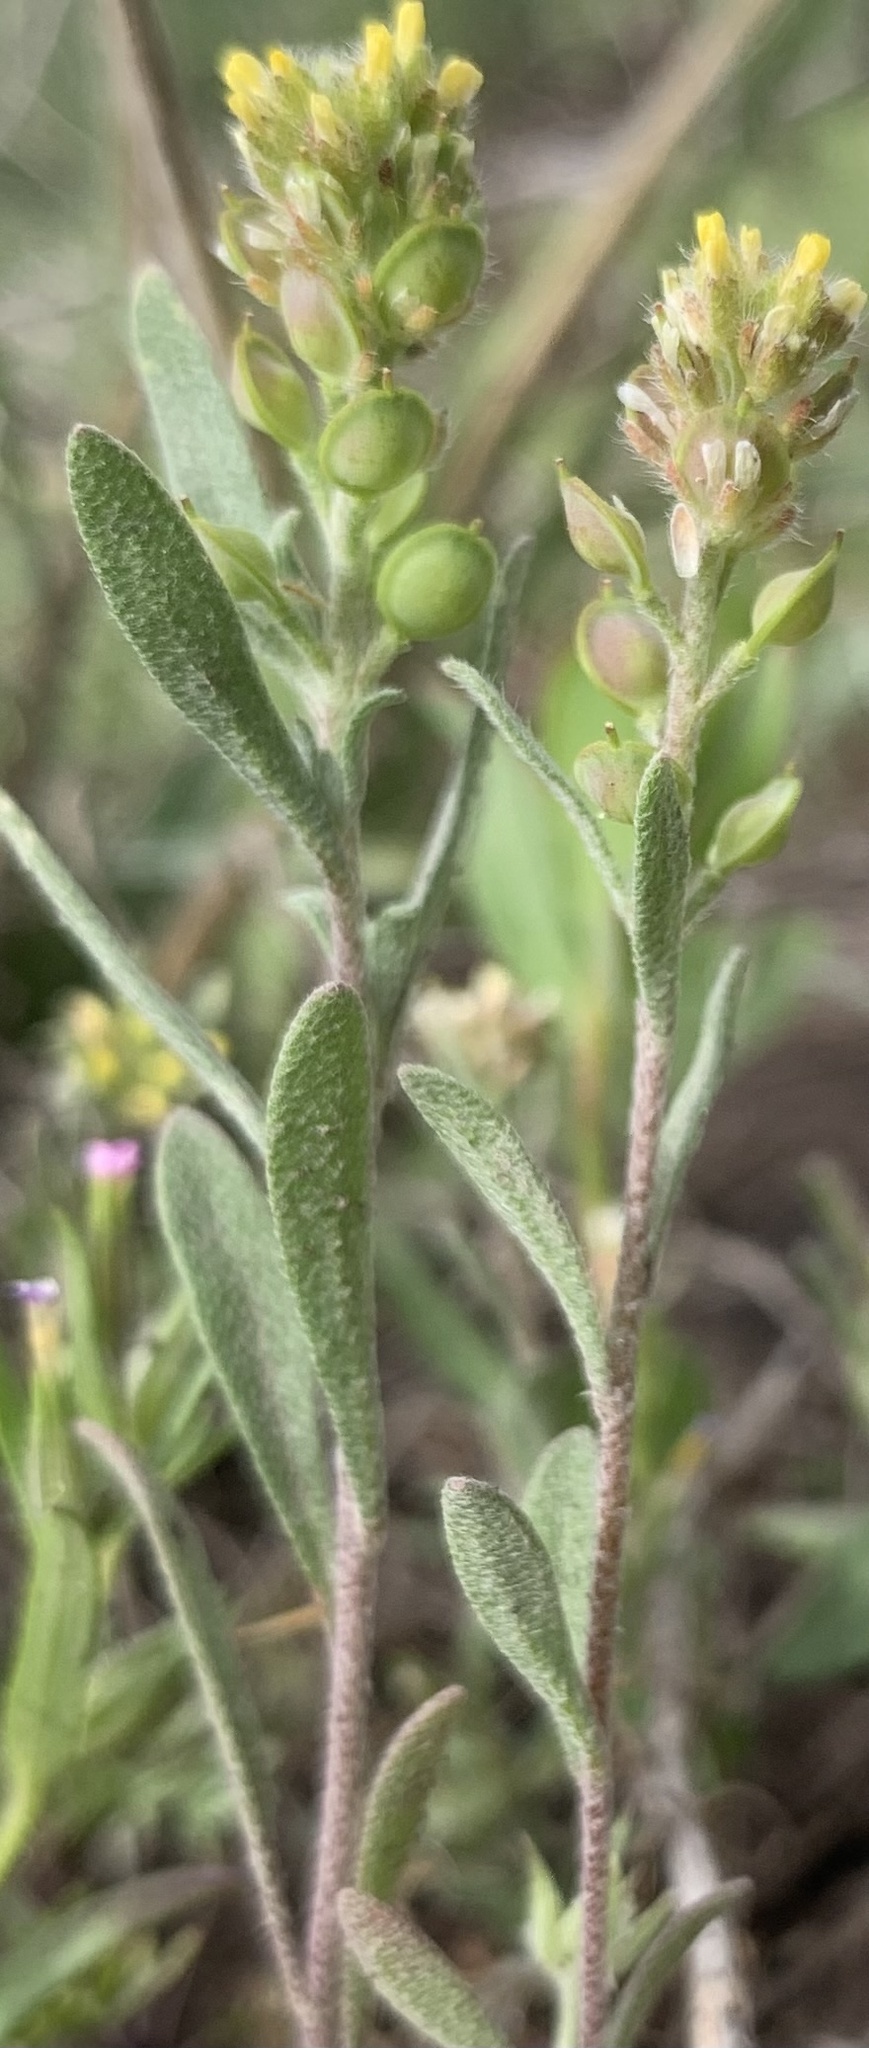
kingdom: Plantae
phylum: Tracheophyta
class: Magnoliopsida
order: Brassicales
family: Brassicaceae
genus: Alyssum
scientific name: Alyssum turkestanicum
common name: Desert alyssum
